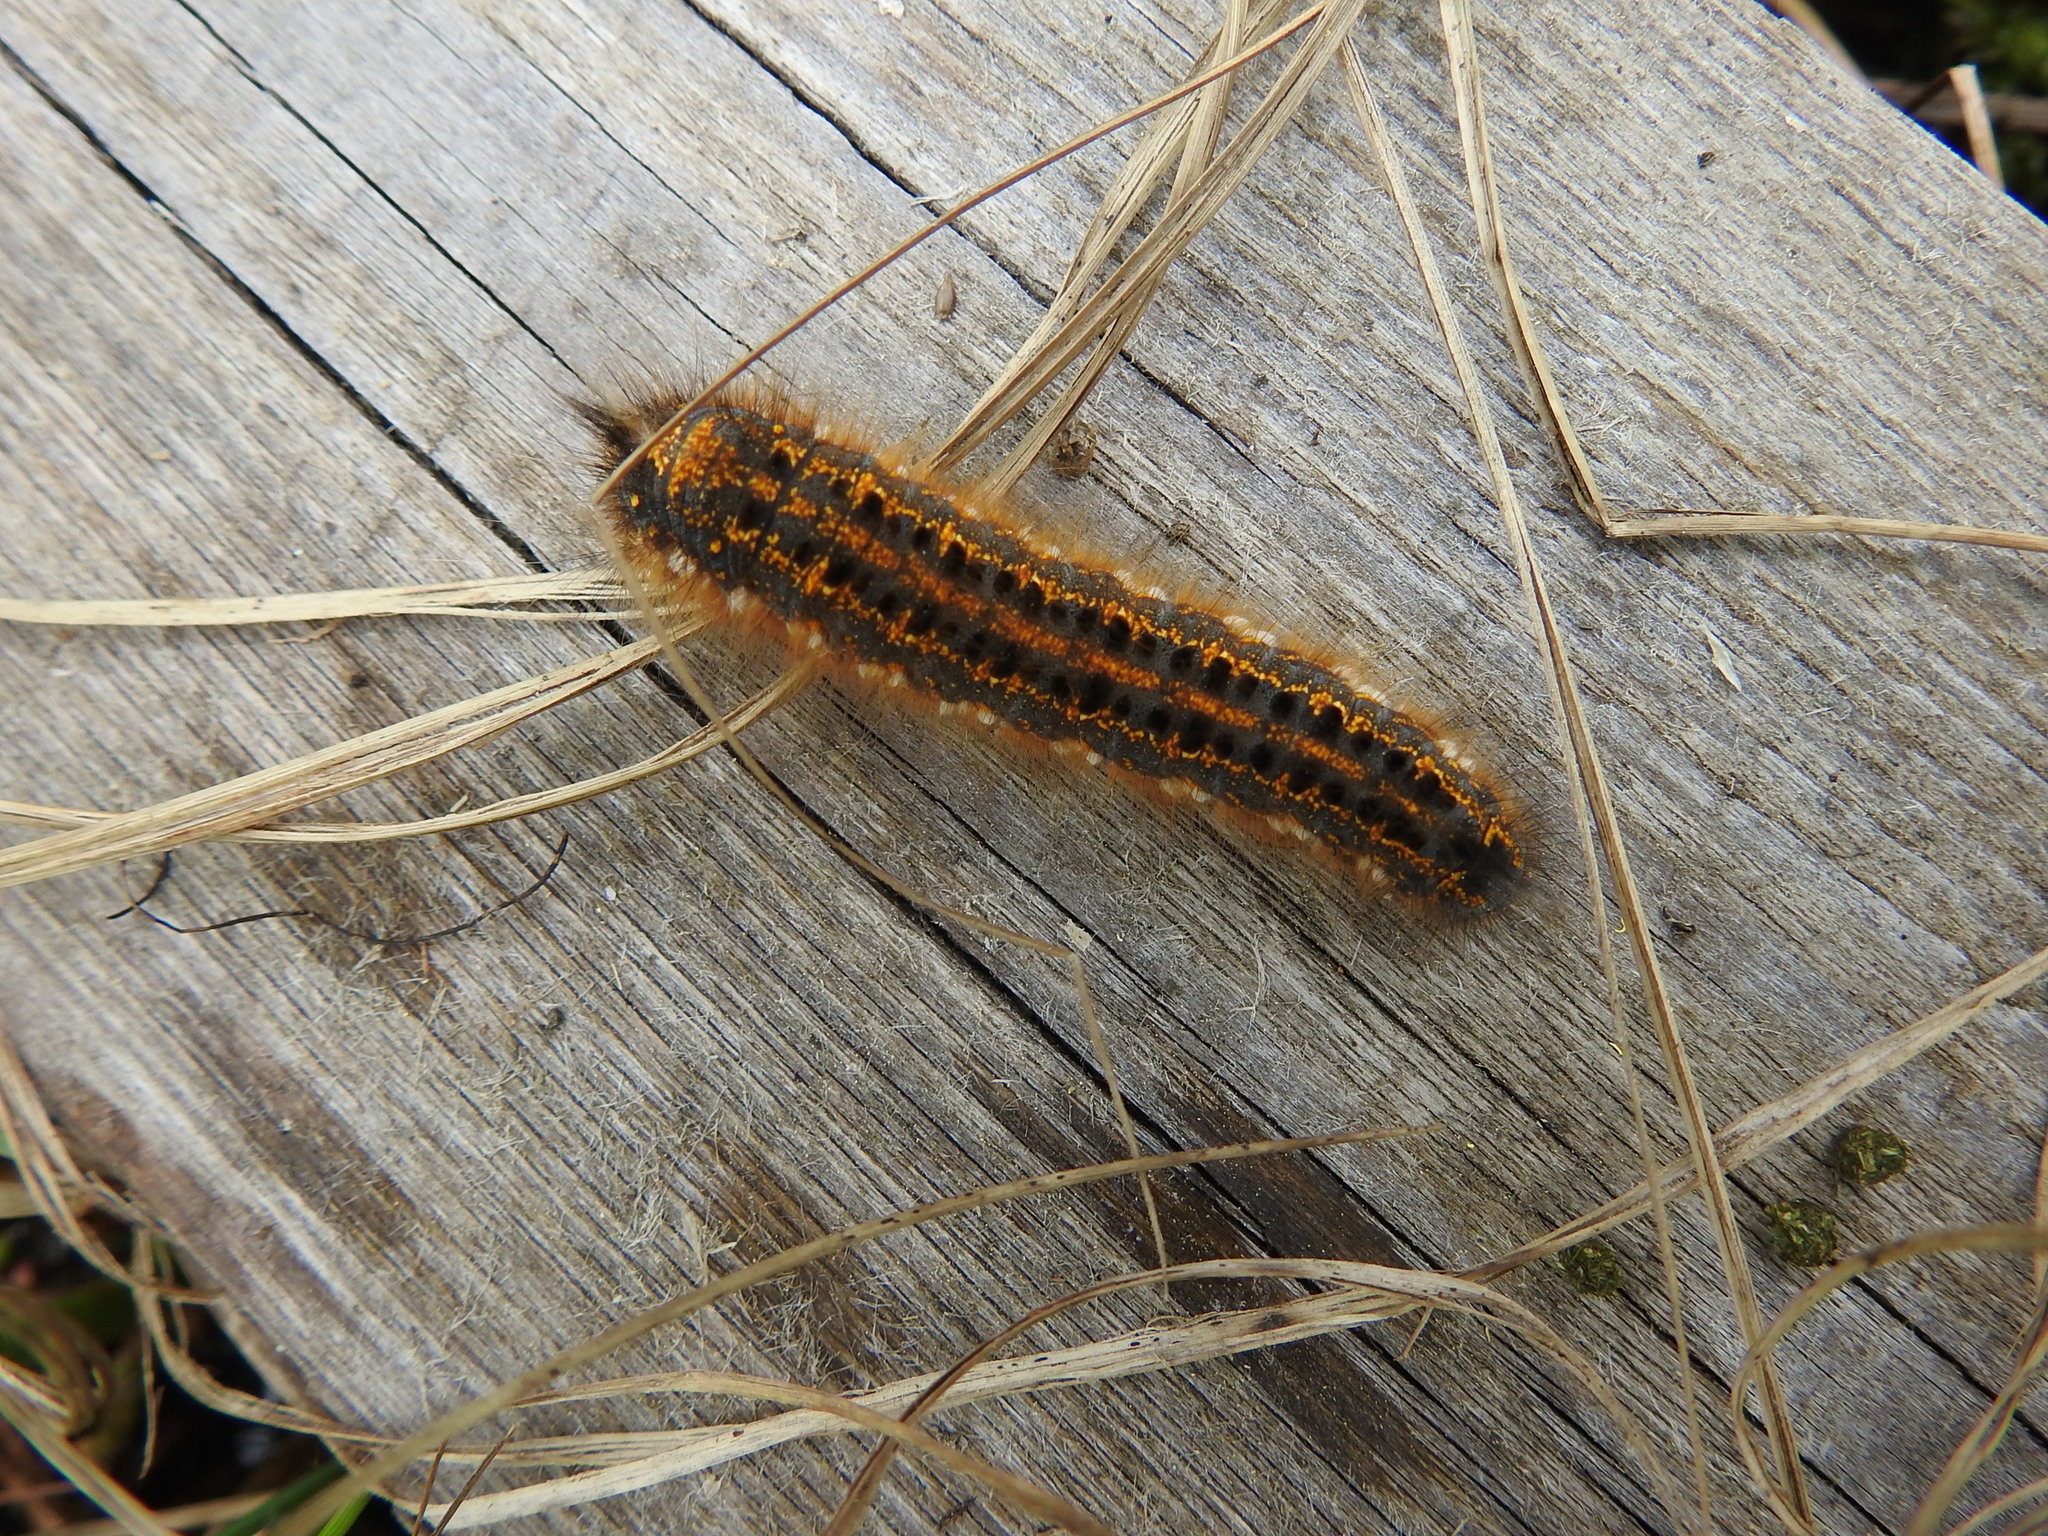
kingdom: Animalia
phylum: Arthropoda
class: Insecta
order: Lepidoptera
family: Lasiocampidae
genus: Euthrix
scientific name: Euthrix potatoria
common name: Drinker
